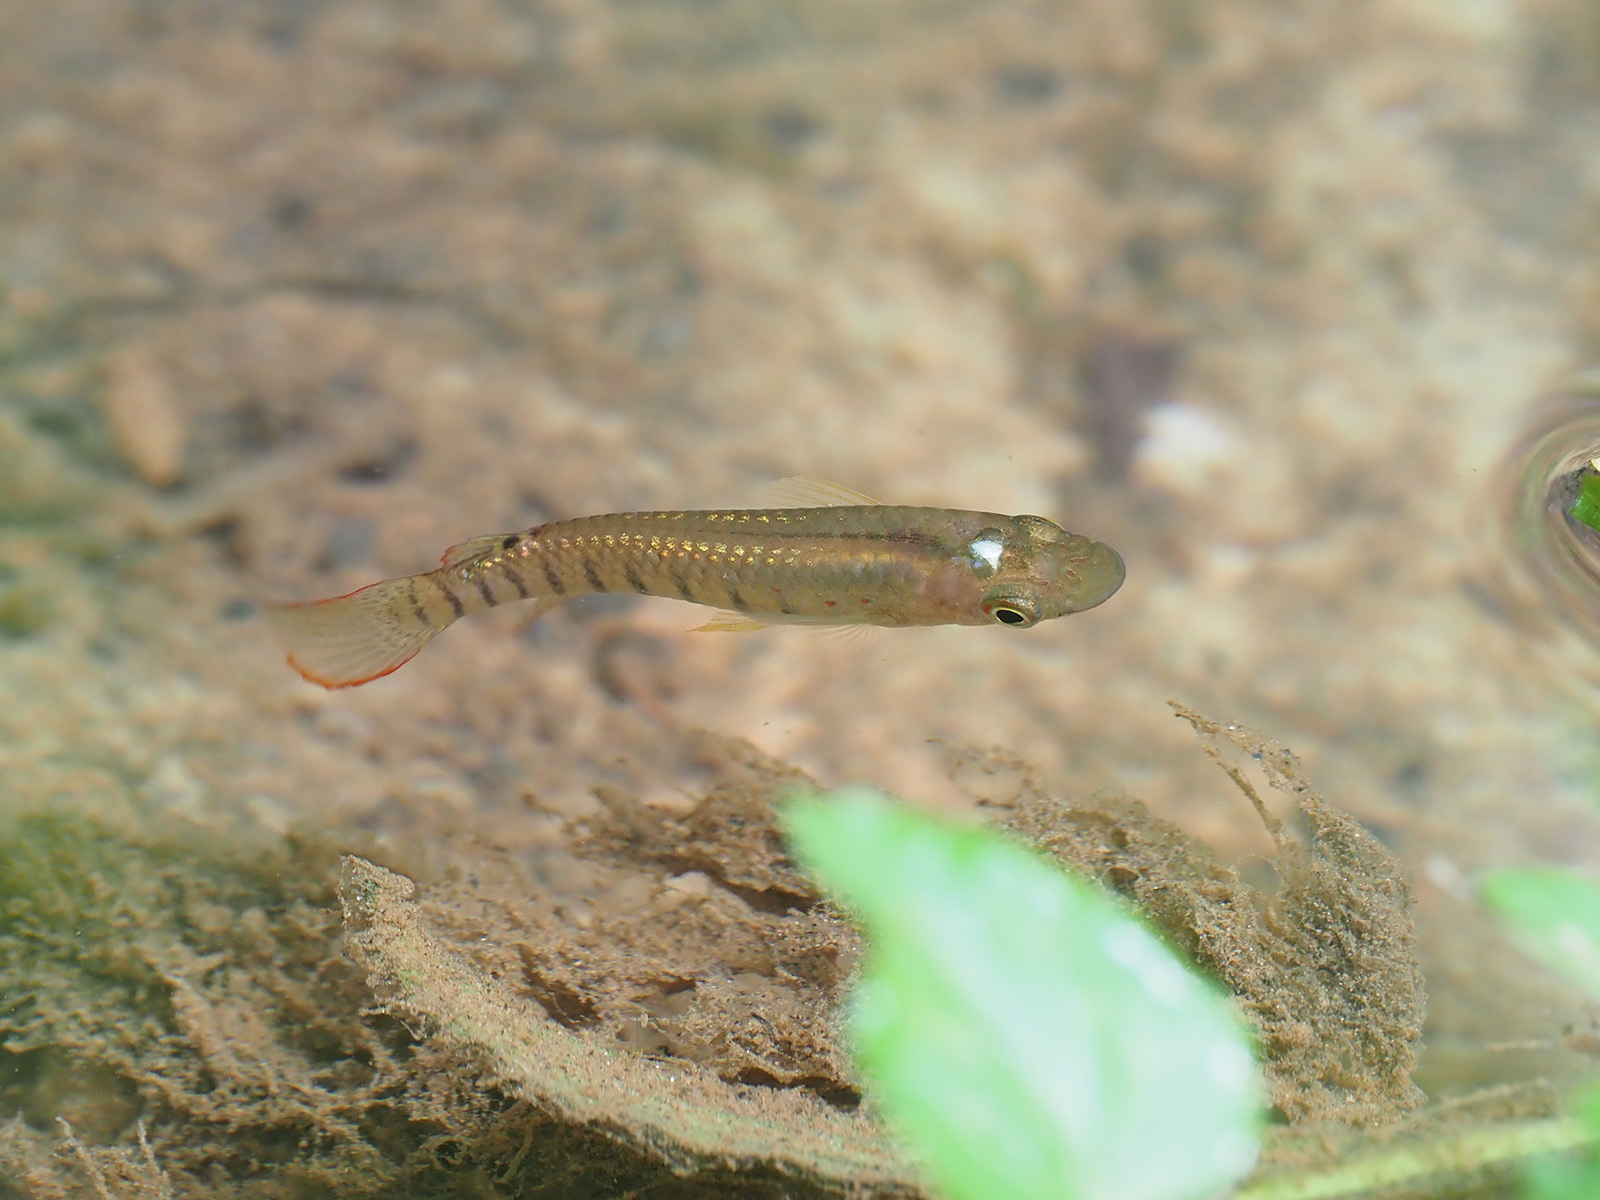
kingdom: Animalia
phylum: Chordata
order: Cyprinodontiformes
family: Aplocheilidae
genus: Aplocheilus
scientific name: Aplocheilus lineatus
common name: Striped panchax
